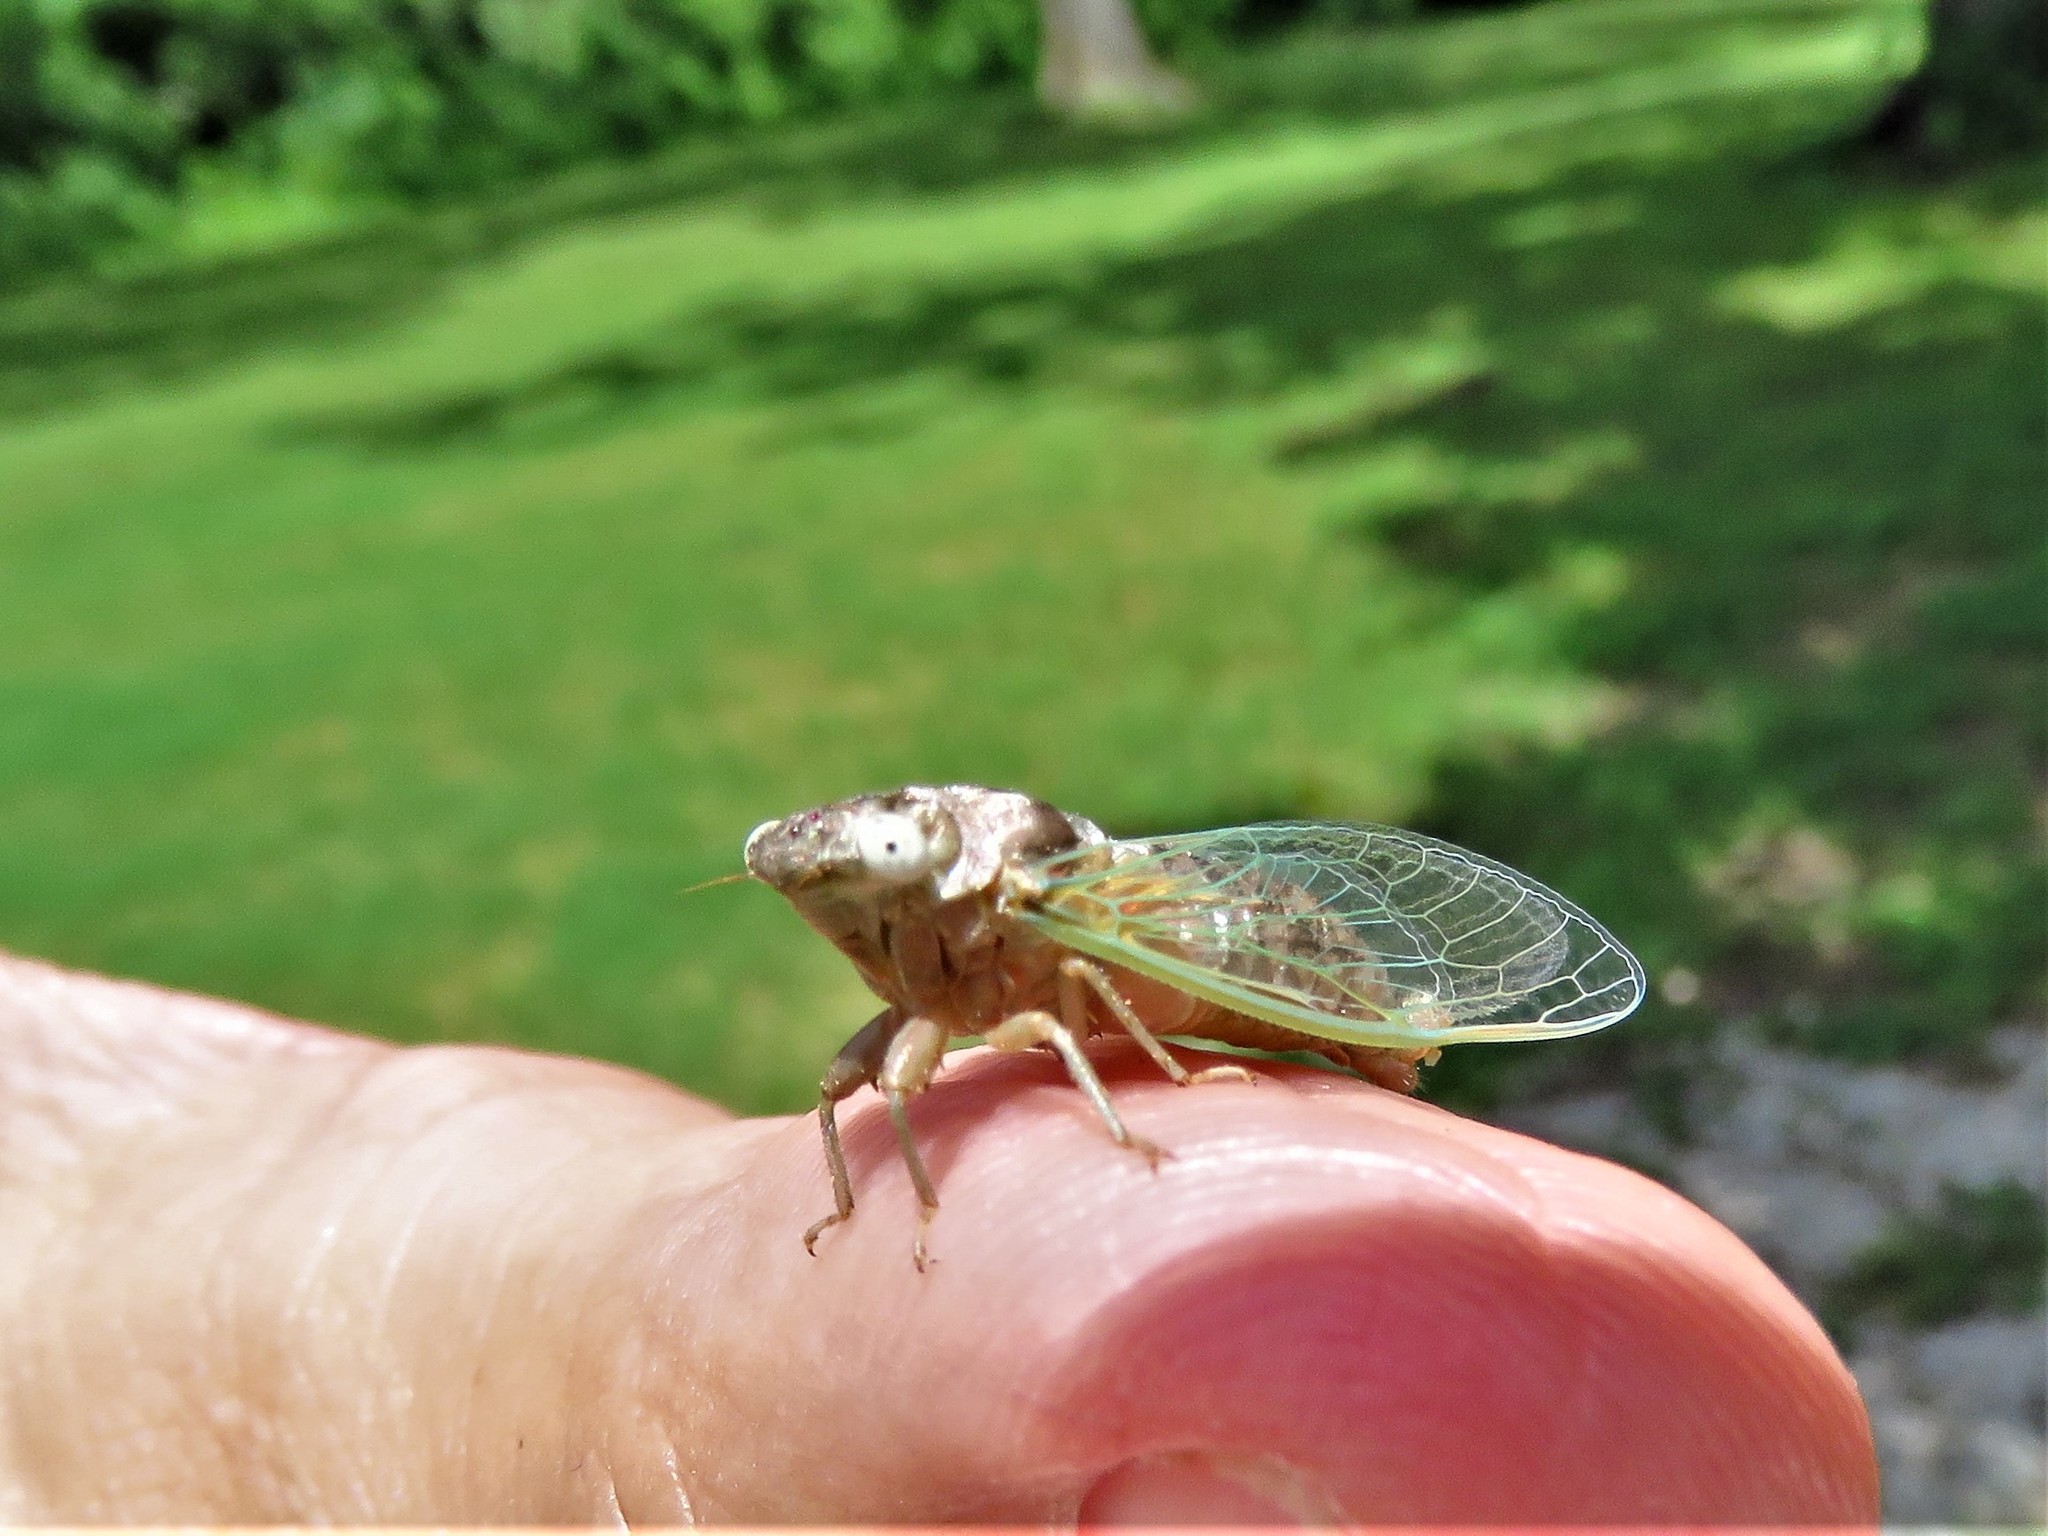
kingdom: Animalia
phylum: Arthropoda
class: Insecta
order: Hemiptera
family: Cicadidae
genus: Pacarina
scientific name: Pacarina puella
